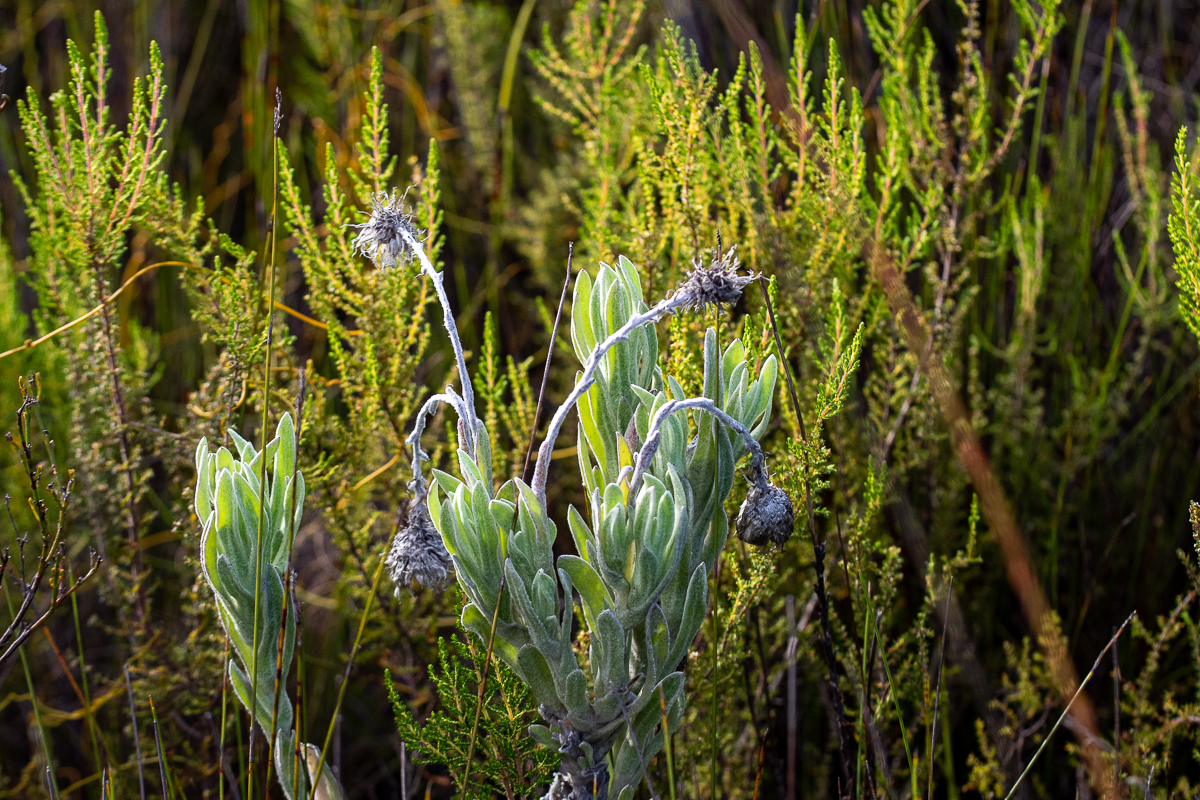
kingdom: Plantae
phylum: Tracheophyta
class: Magnoliopsida
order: Asterales
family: Asteraceae
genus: Syncarpha
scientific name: Syncarpha vestita
